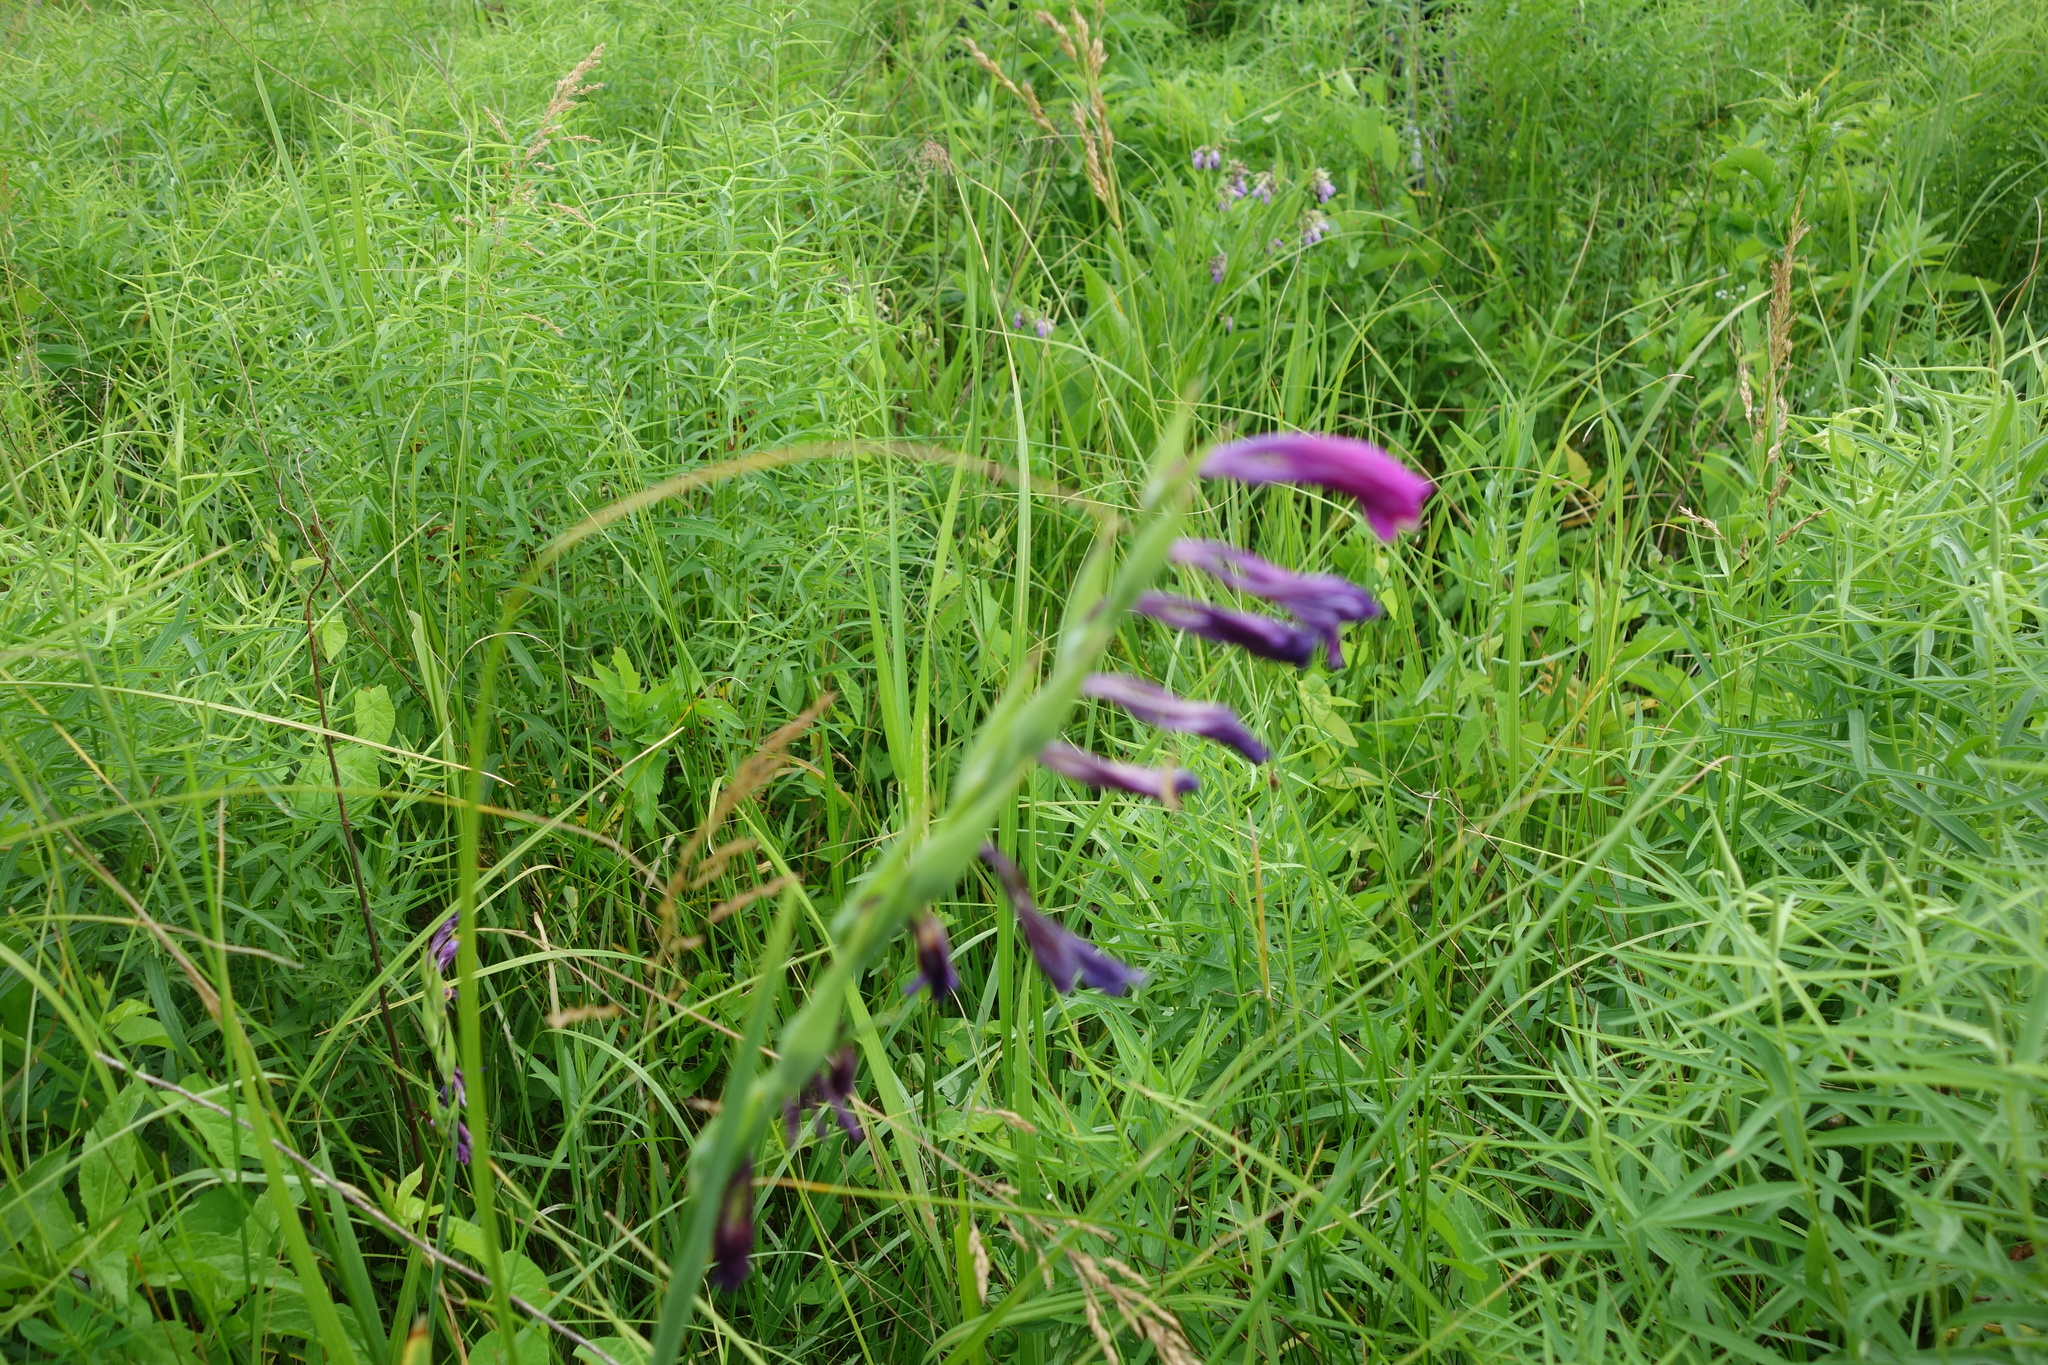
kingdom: Plantae
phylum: Tracheophyta
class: Liliopsida
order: Asparagales
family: Iridaceae
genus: Gladiolus
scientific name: Gladiolus tenuis
